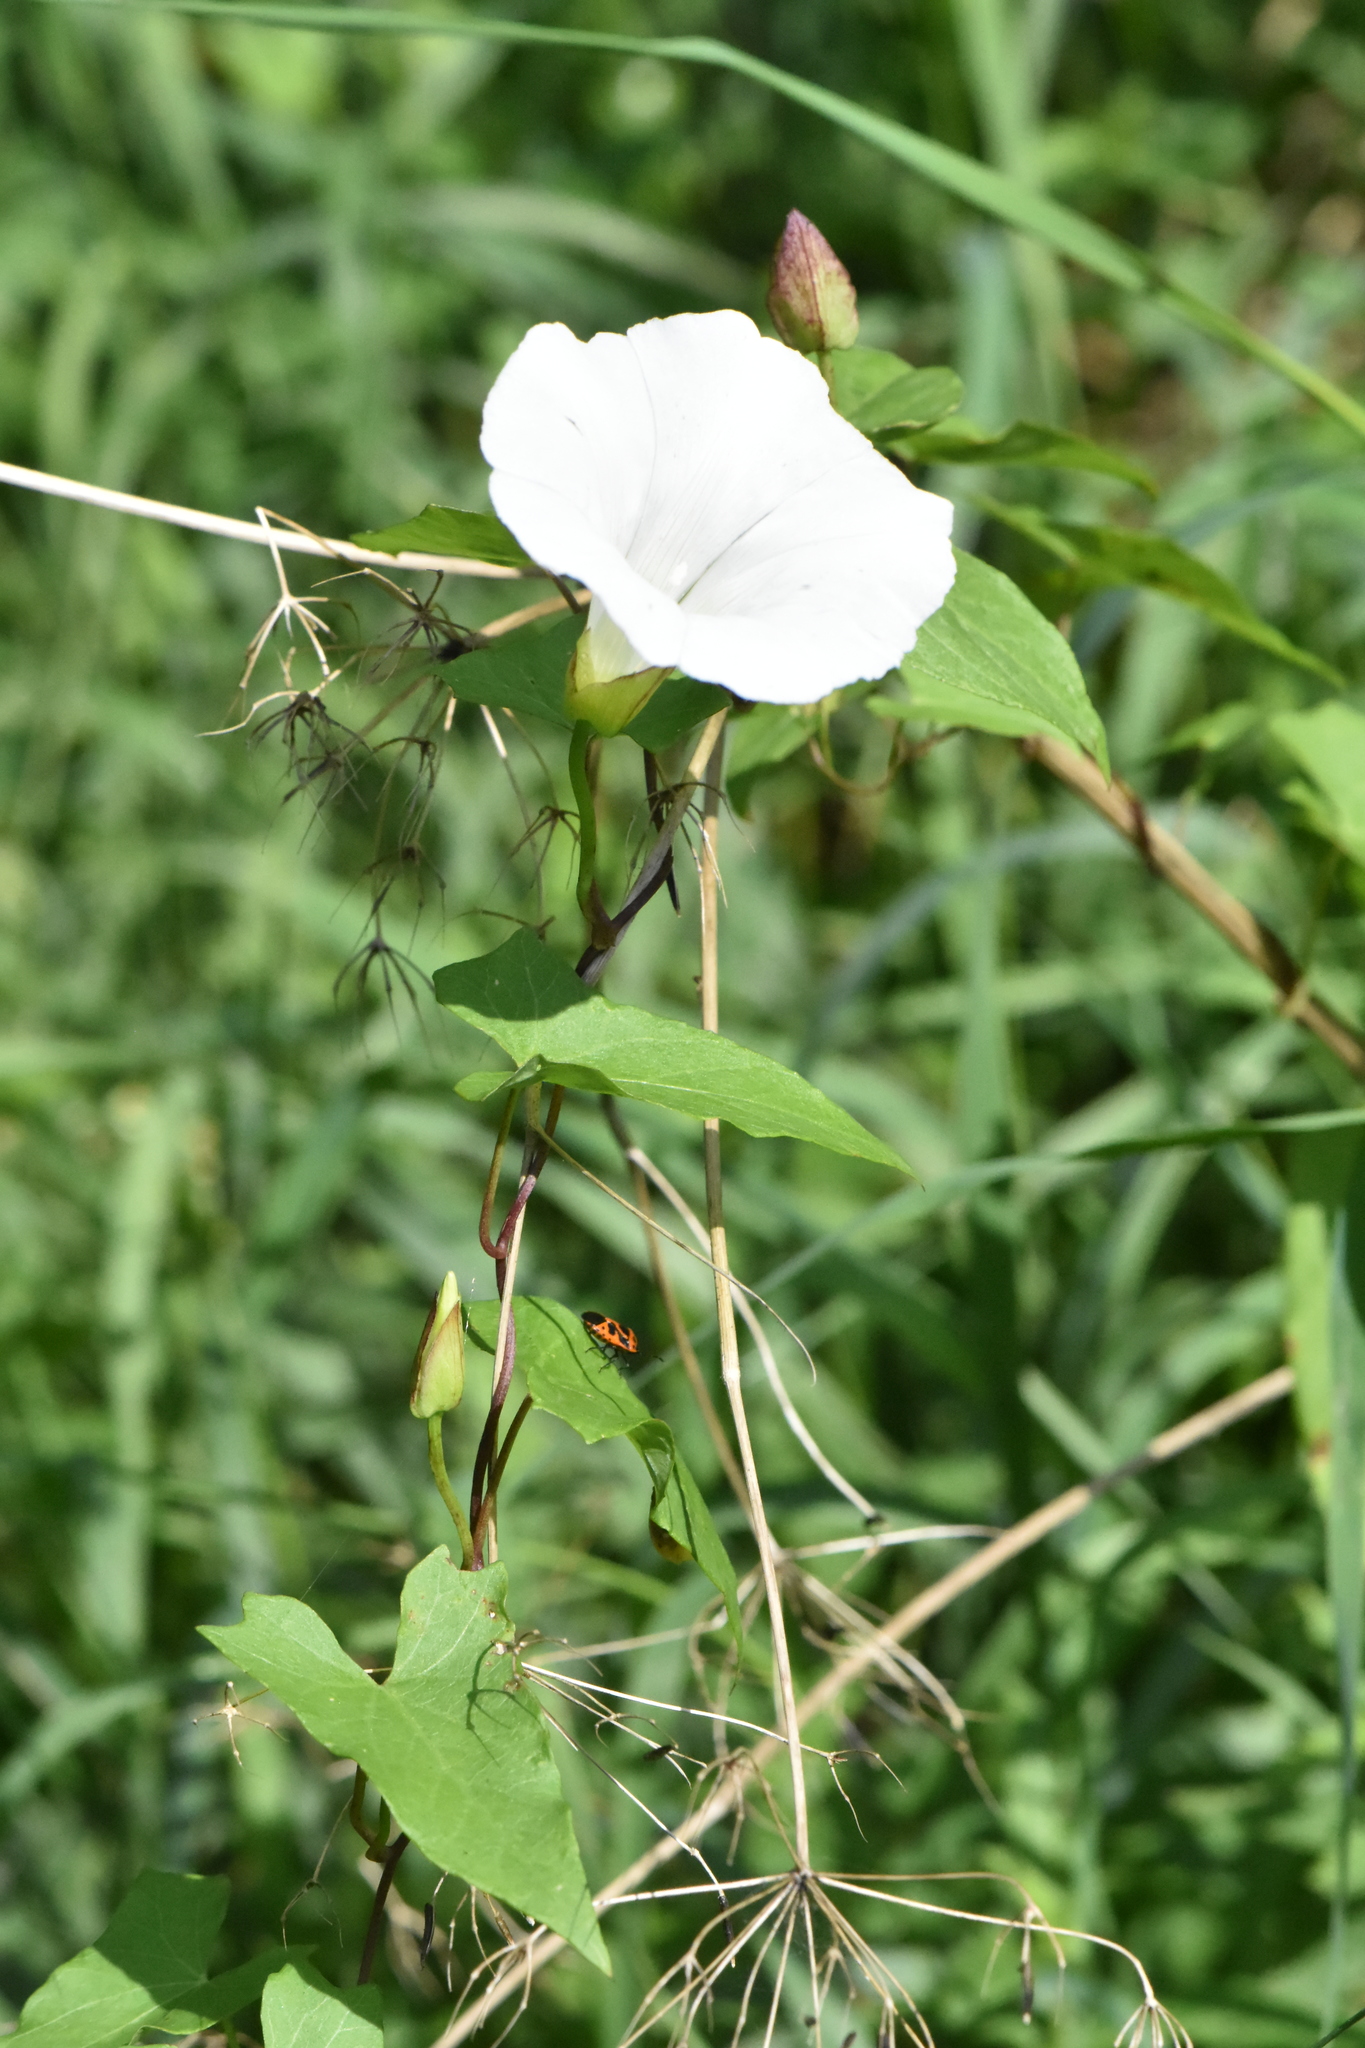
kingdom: Plantae
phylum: Tracheophyta
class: Magnoliopsida
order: Solanales
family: Convolvulaceae
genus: Calystegia
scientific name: Calystegia sepium
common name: Hedge bindweed
